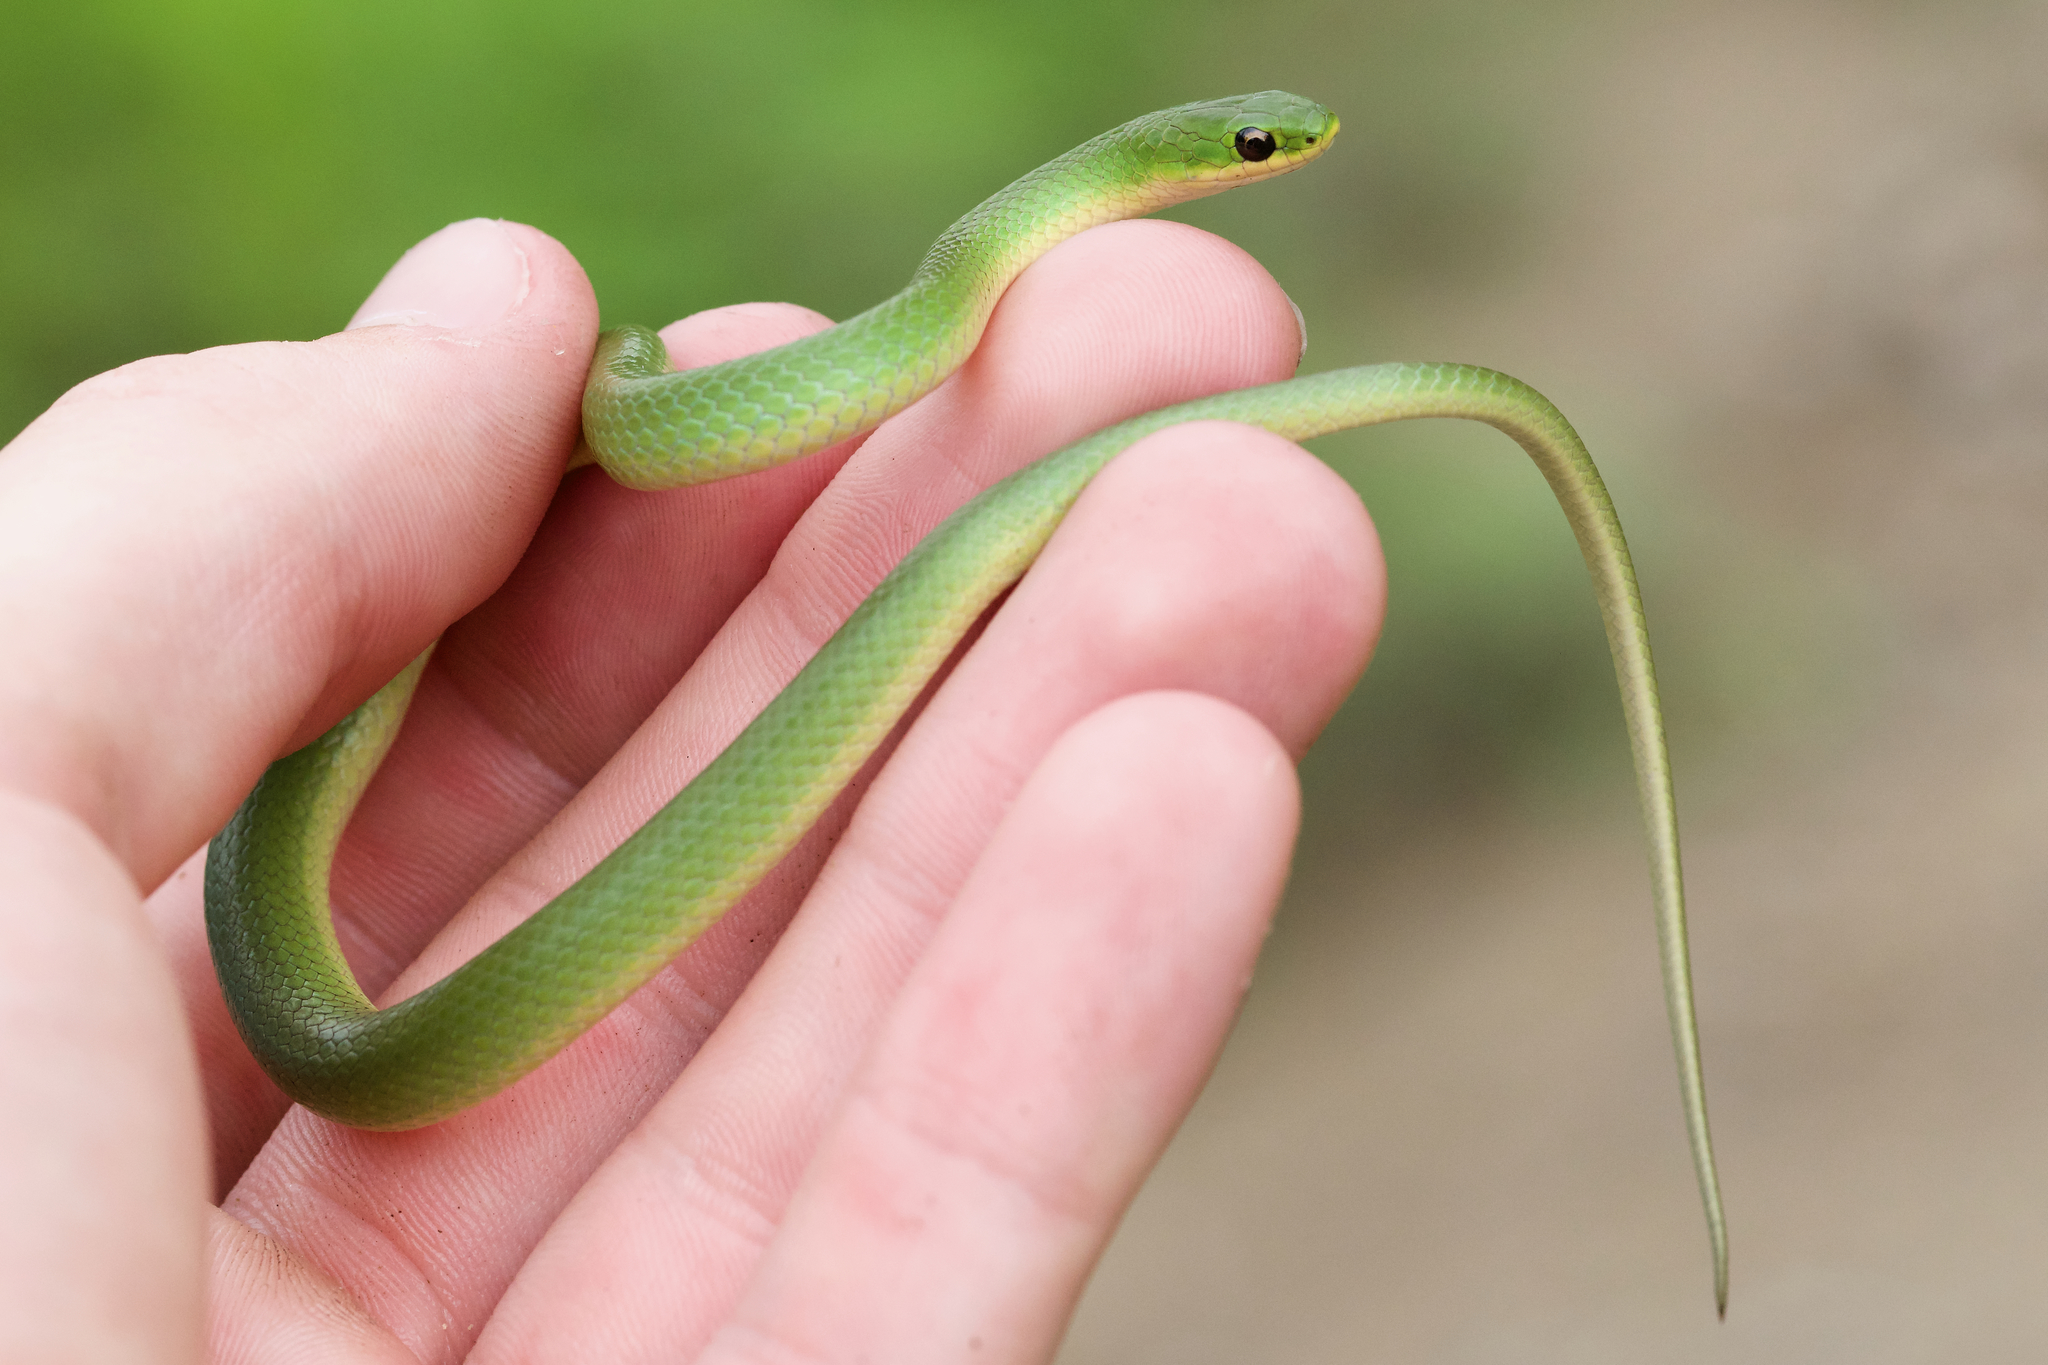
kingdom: Animalia
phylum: Chordata
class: Squamata
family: Colubridae
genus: Opheodrys
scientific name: Opheodrys vernalis
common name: Smooth green snake
